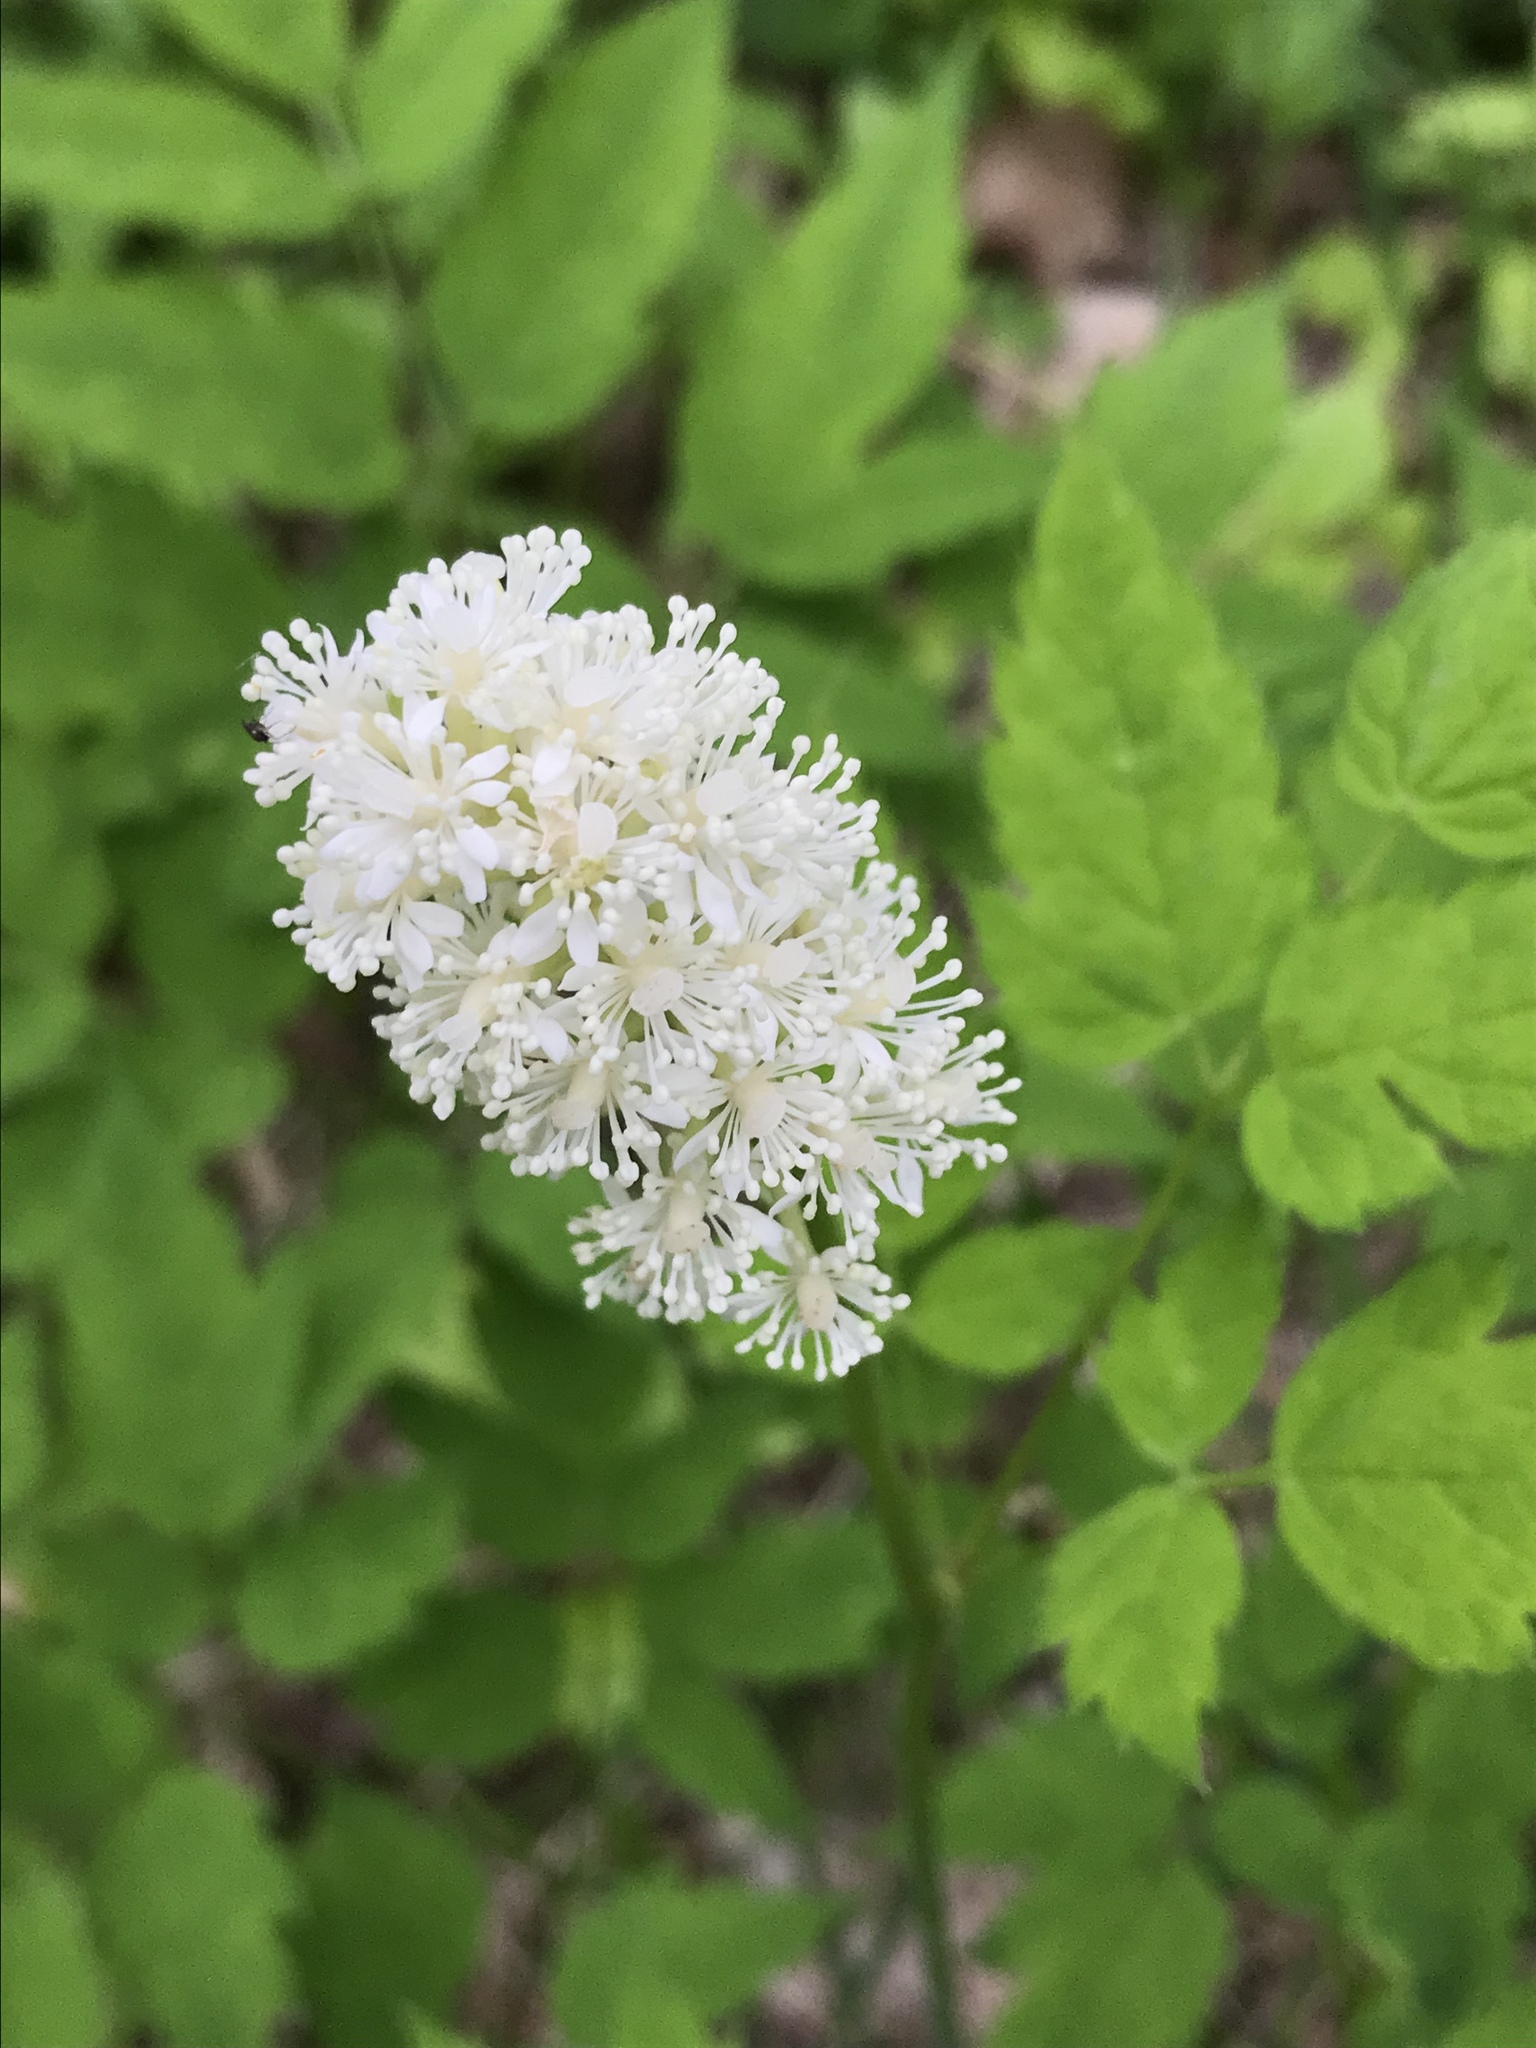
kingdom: Plantae
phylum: Tracheophyta
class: Magnoliopsida
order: Ranunculales
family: Ranunculaceae
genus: Actaea
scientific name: Actaea pachypoda
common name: Doll's-eyes
